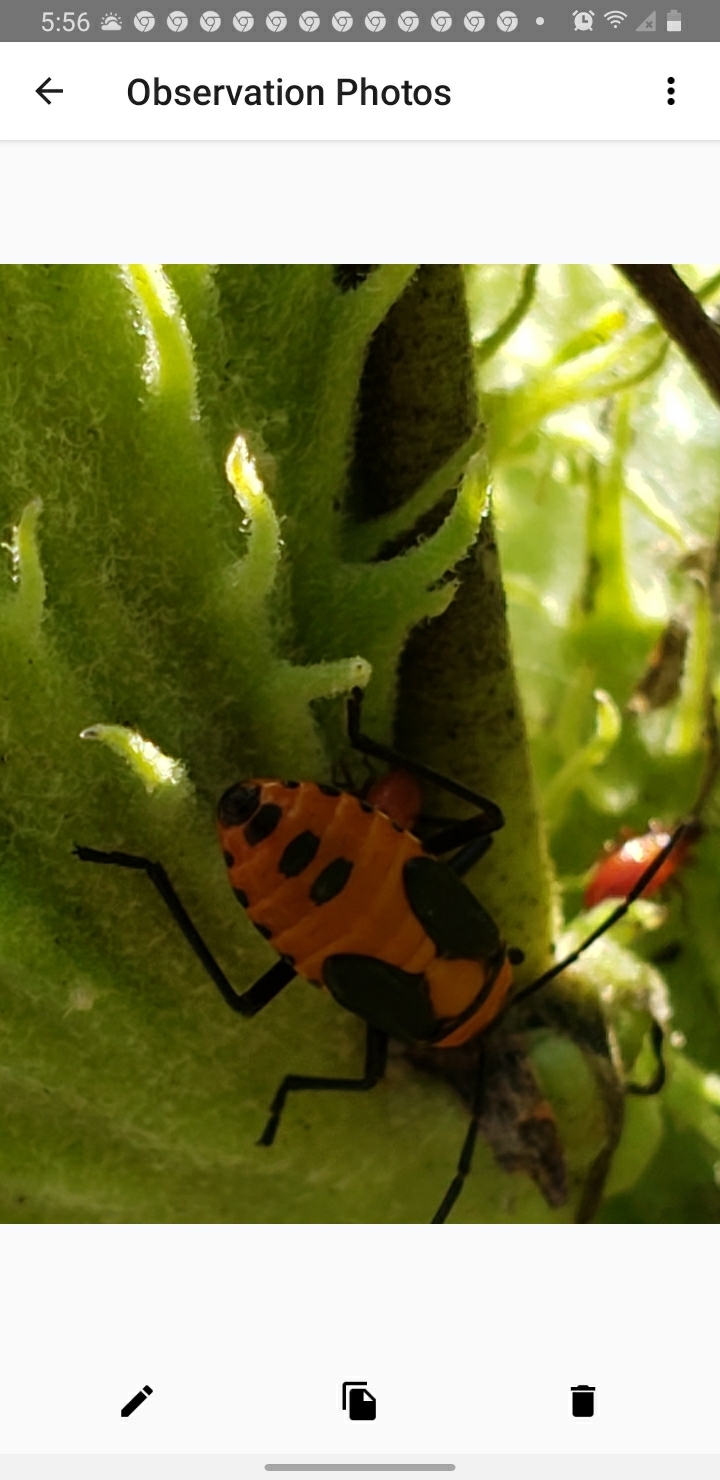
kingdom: Animalia
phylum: Arthropoda
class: Insecta
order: Hemiptera
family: Lygaeidae
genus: Oncopeltus
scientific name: Oncopeltus fasciatus
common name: Large milkweed bug
